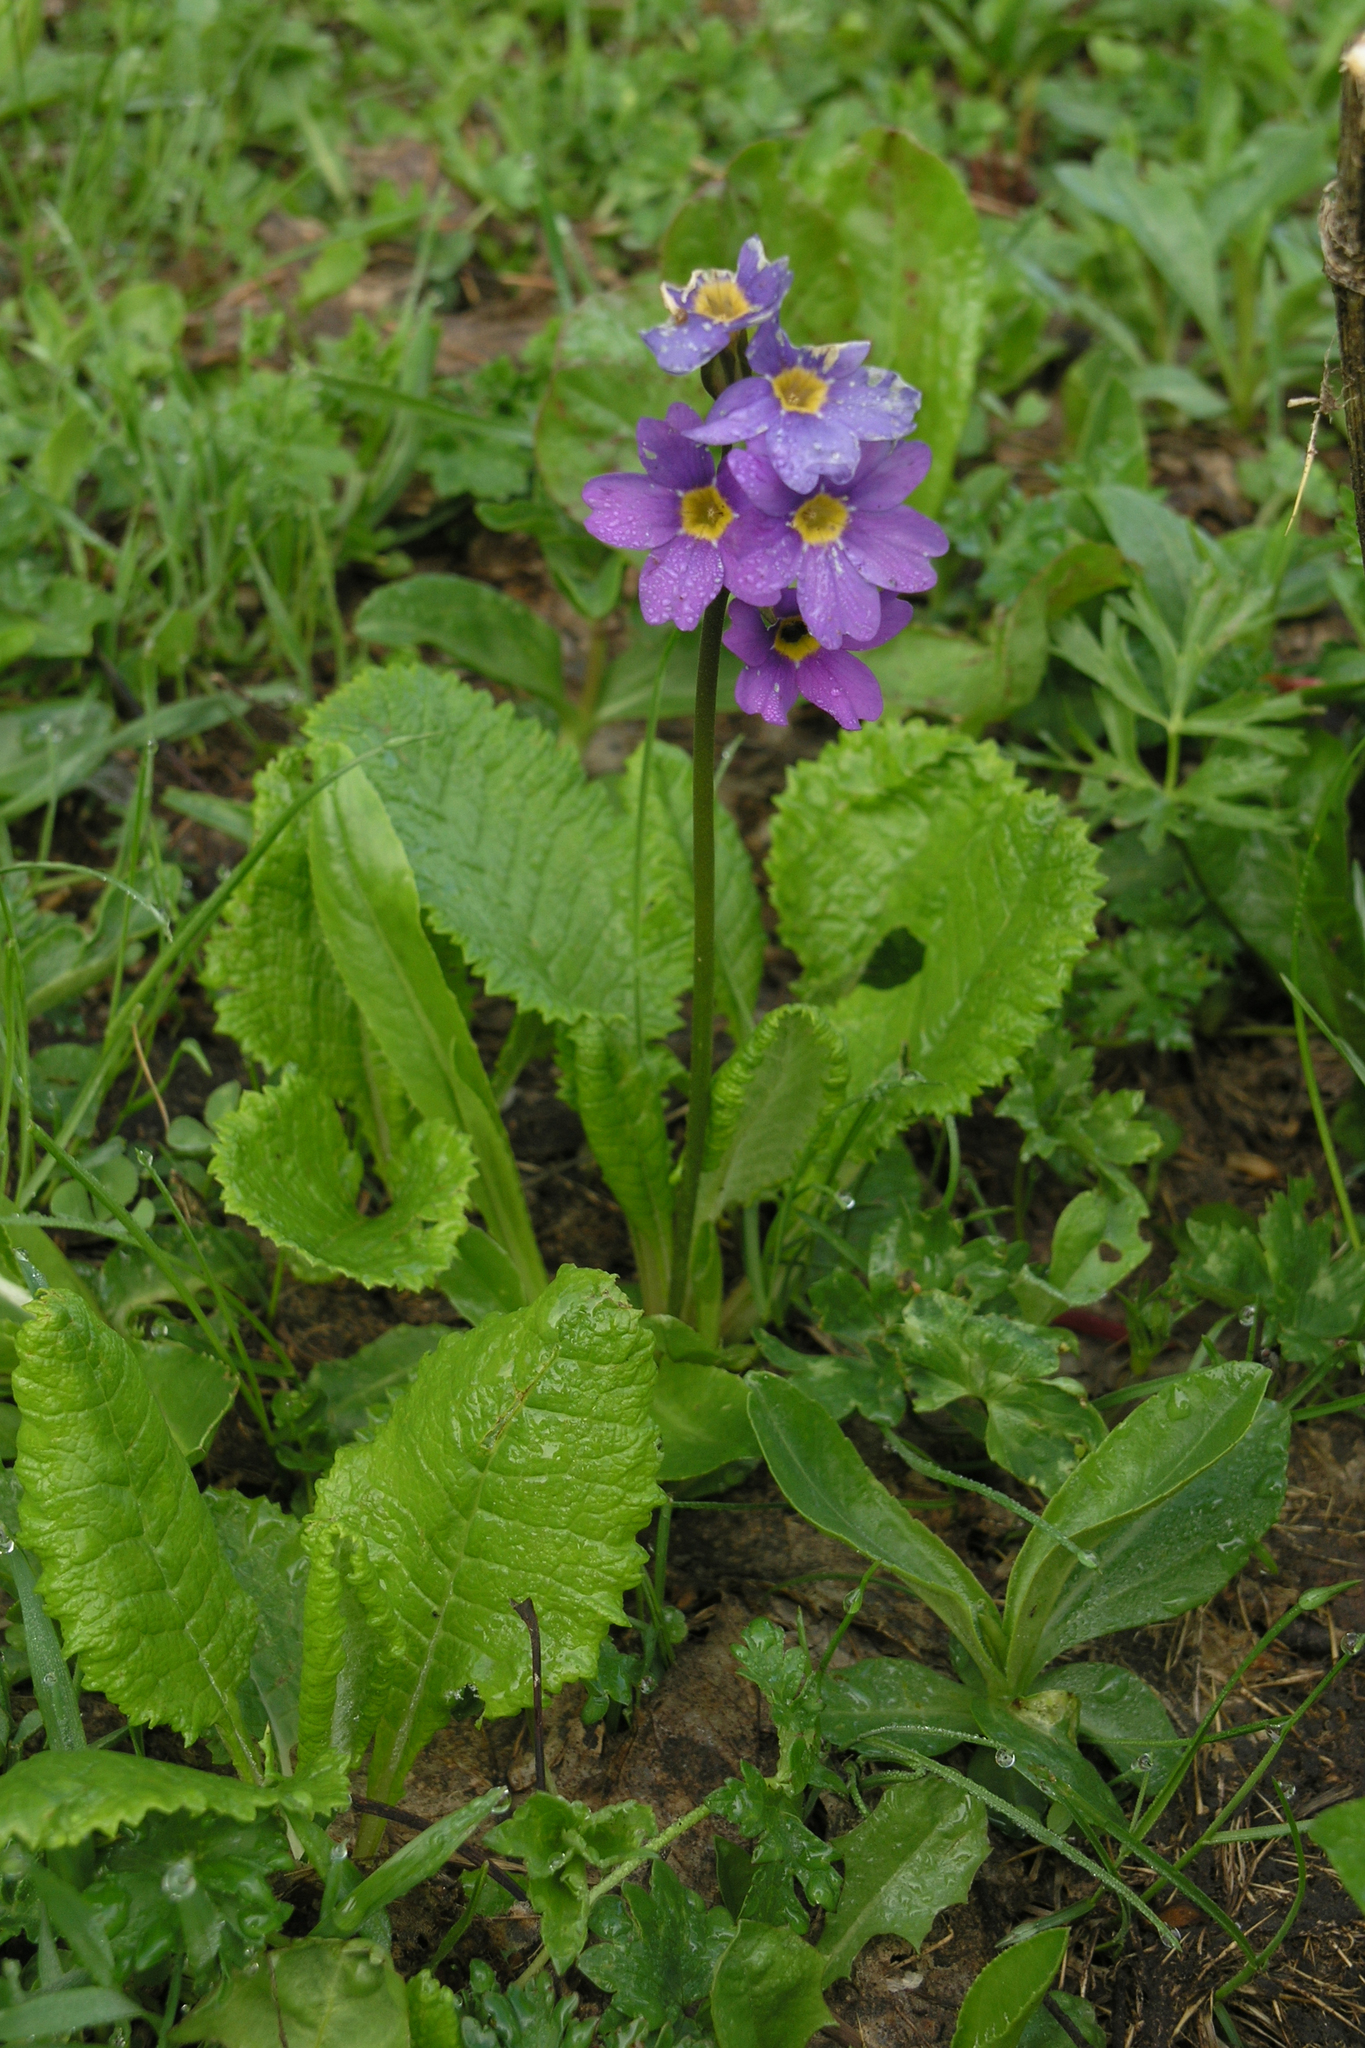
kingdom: Plantae
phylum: Tracheophyta
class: Magnoliopsida
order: Ericales
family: Primulaceae
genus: Primula
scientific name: Primula amoena
